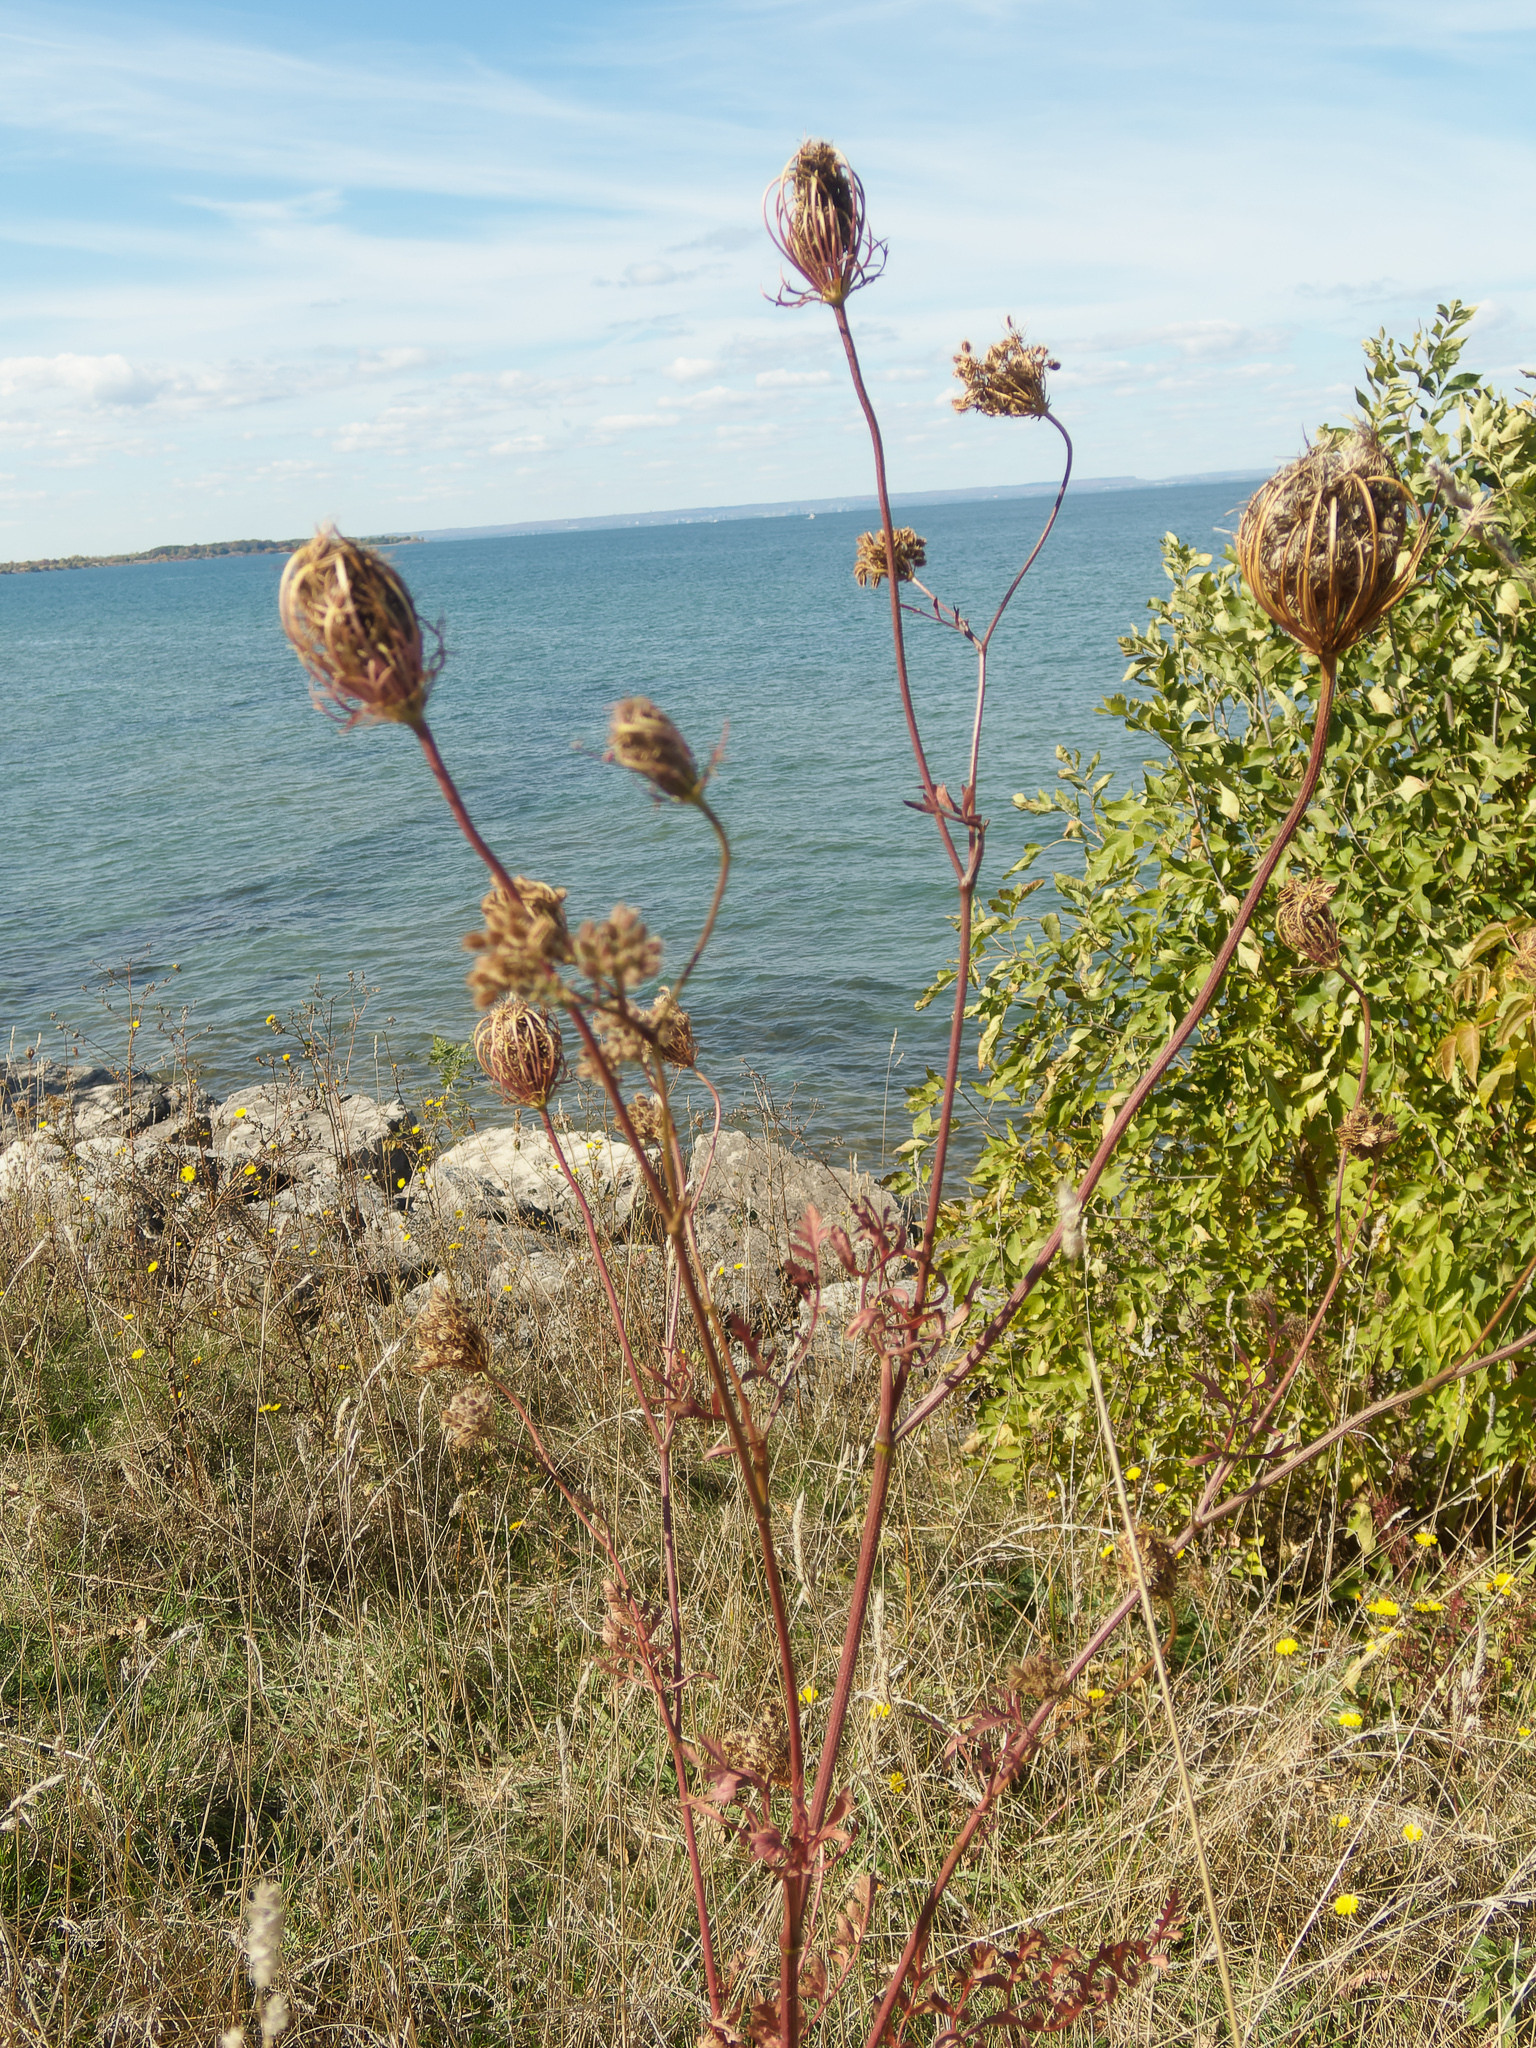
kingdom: Plantae
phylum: Tracheophyta
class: Magnoliopsida
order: Apiales
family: Apiaceae
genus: Daucus
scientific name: Daucus carota
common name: Wild carrot
